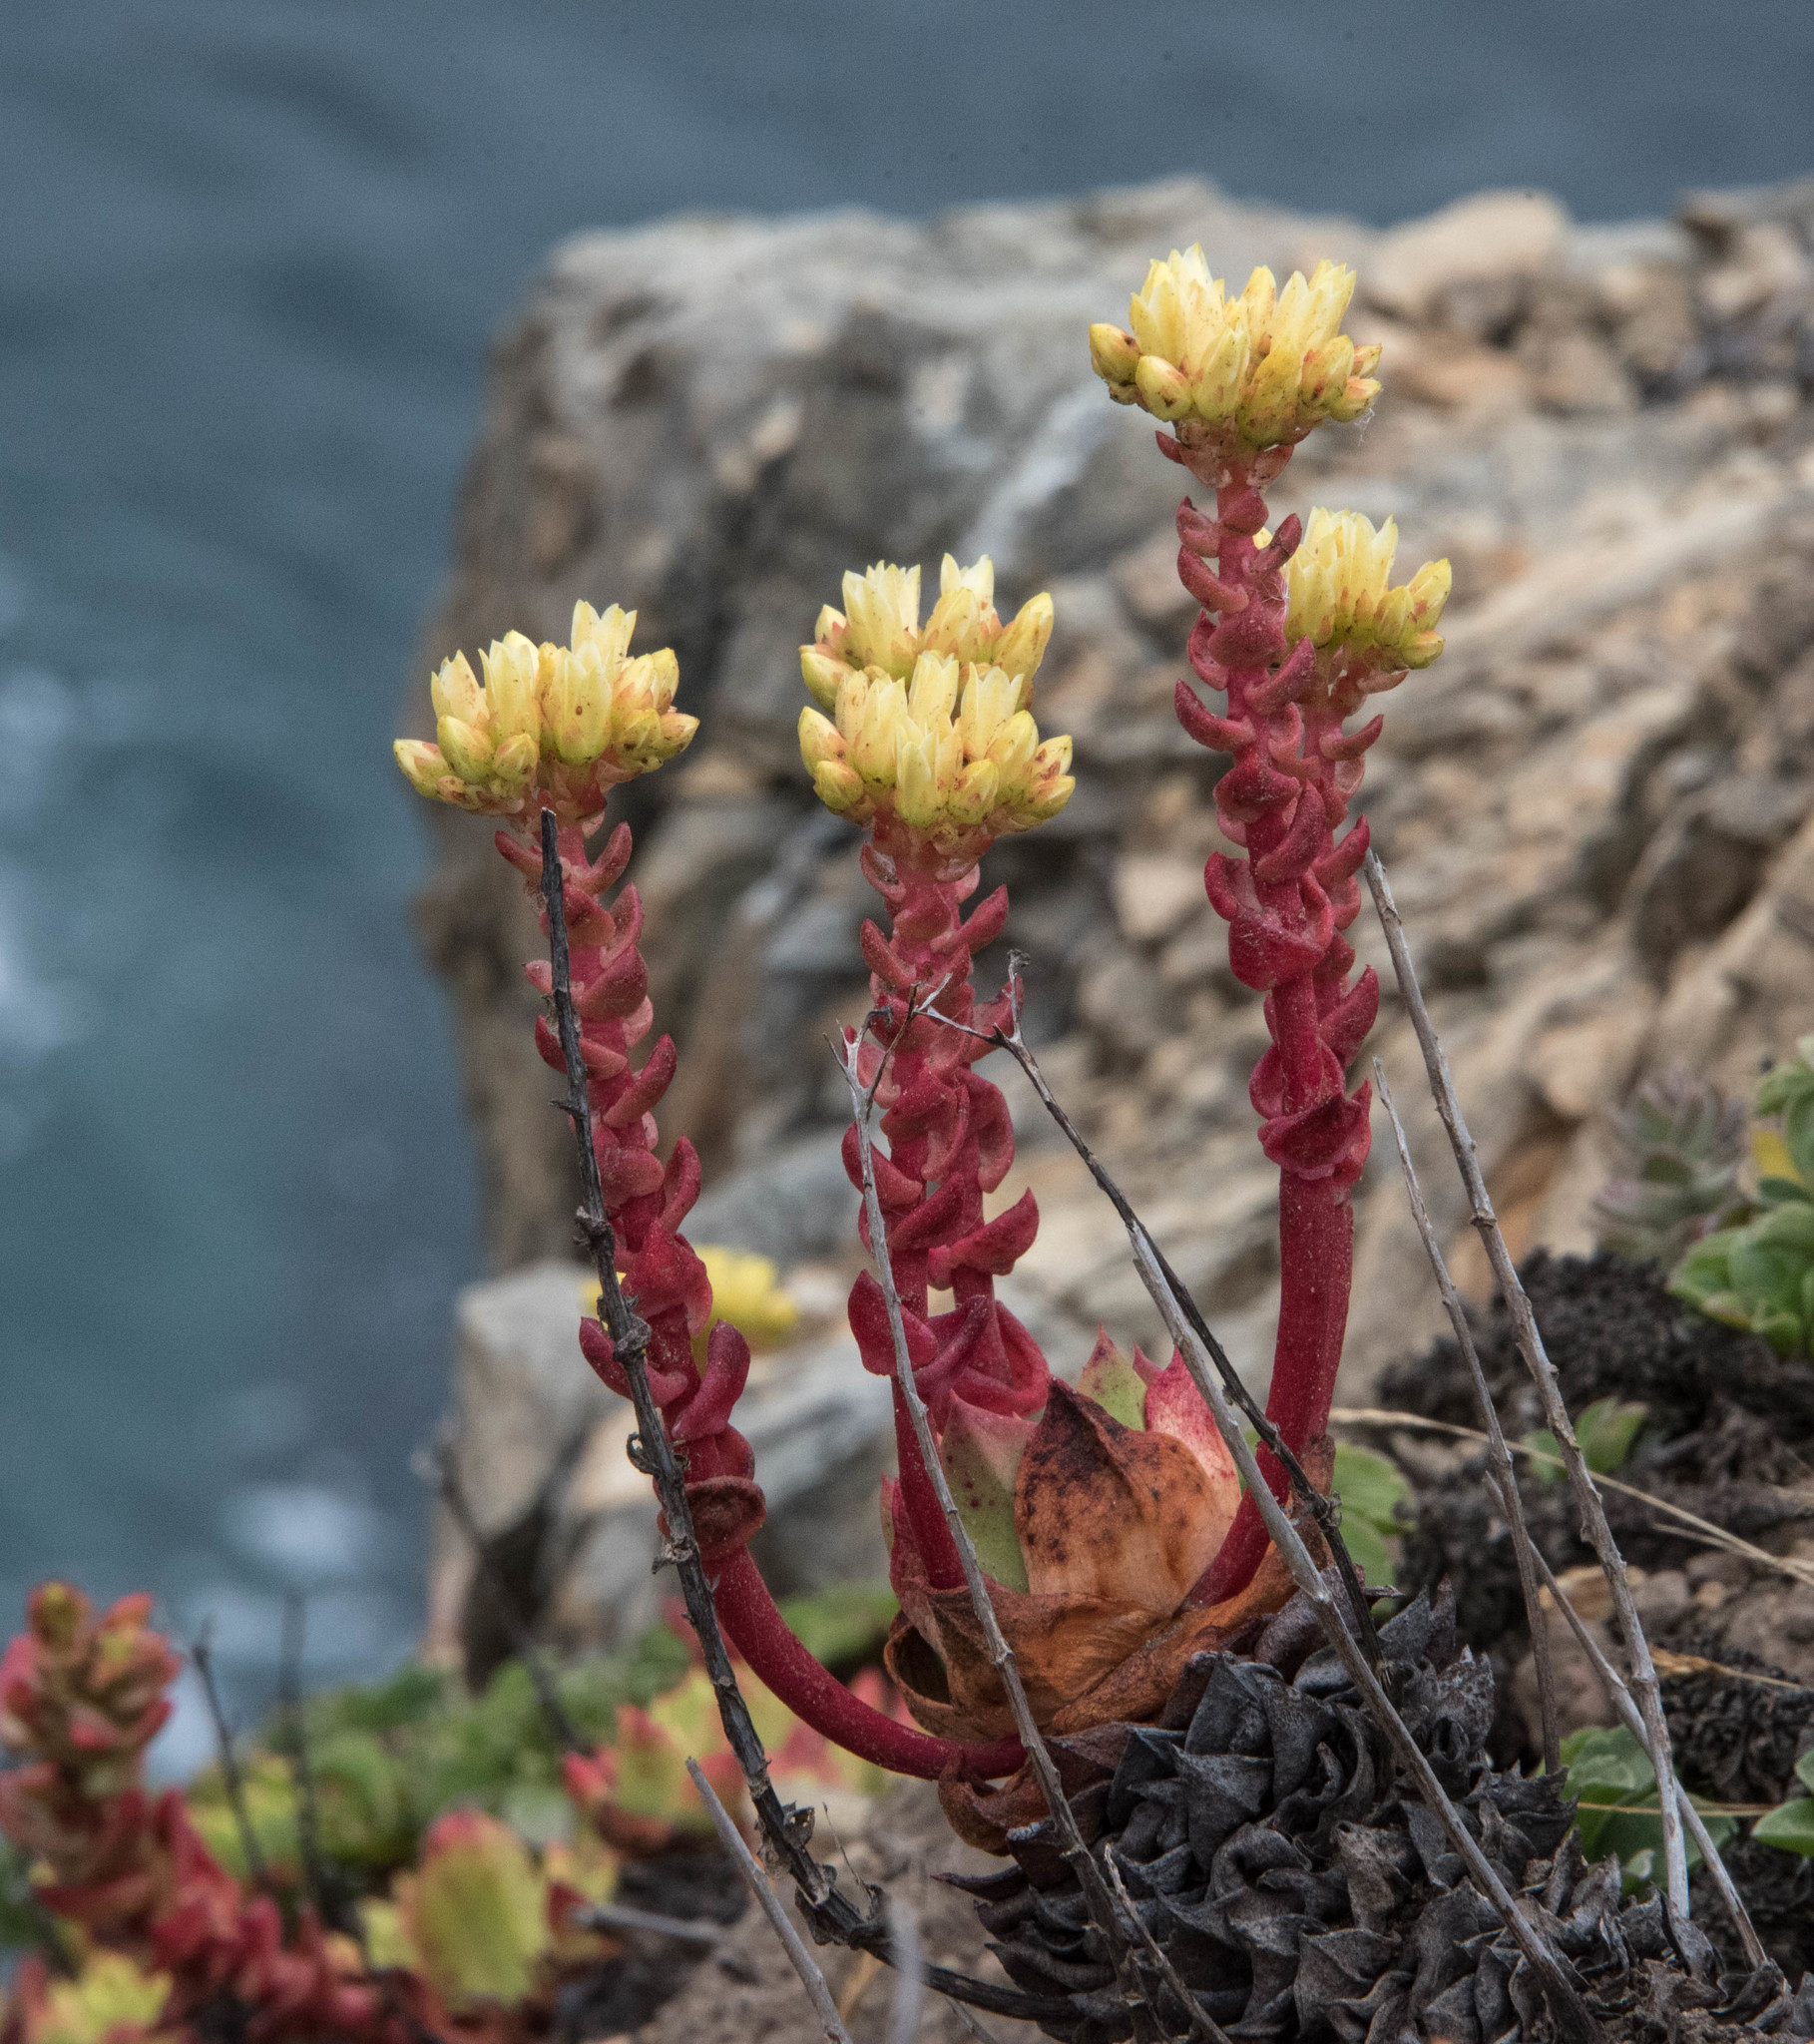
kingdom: Plantae
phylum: Tracheophyta
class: Magnoliopsida
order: Saxifragales
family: Crassulaceae
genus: Dudleya
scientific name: Dudleya farinosa
